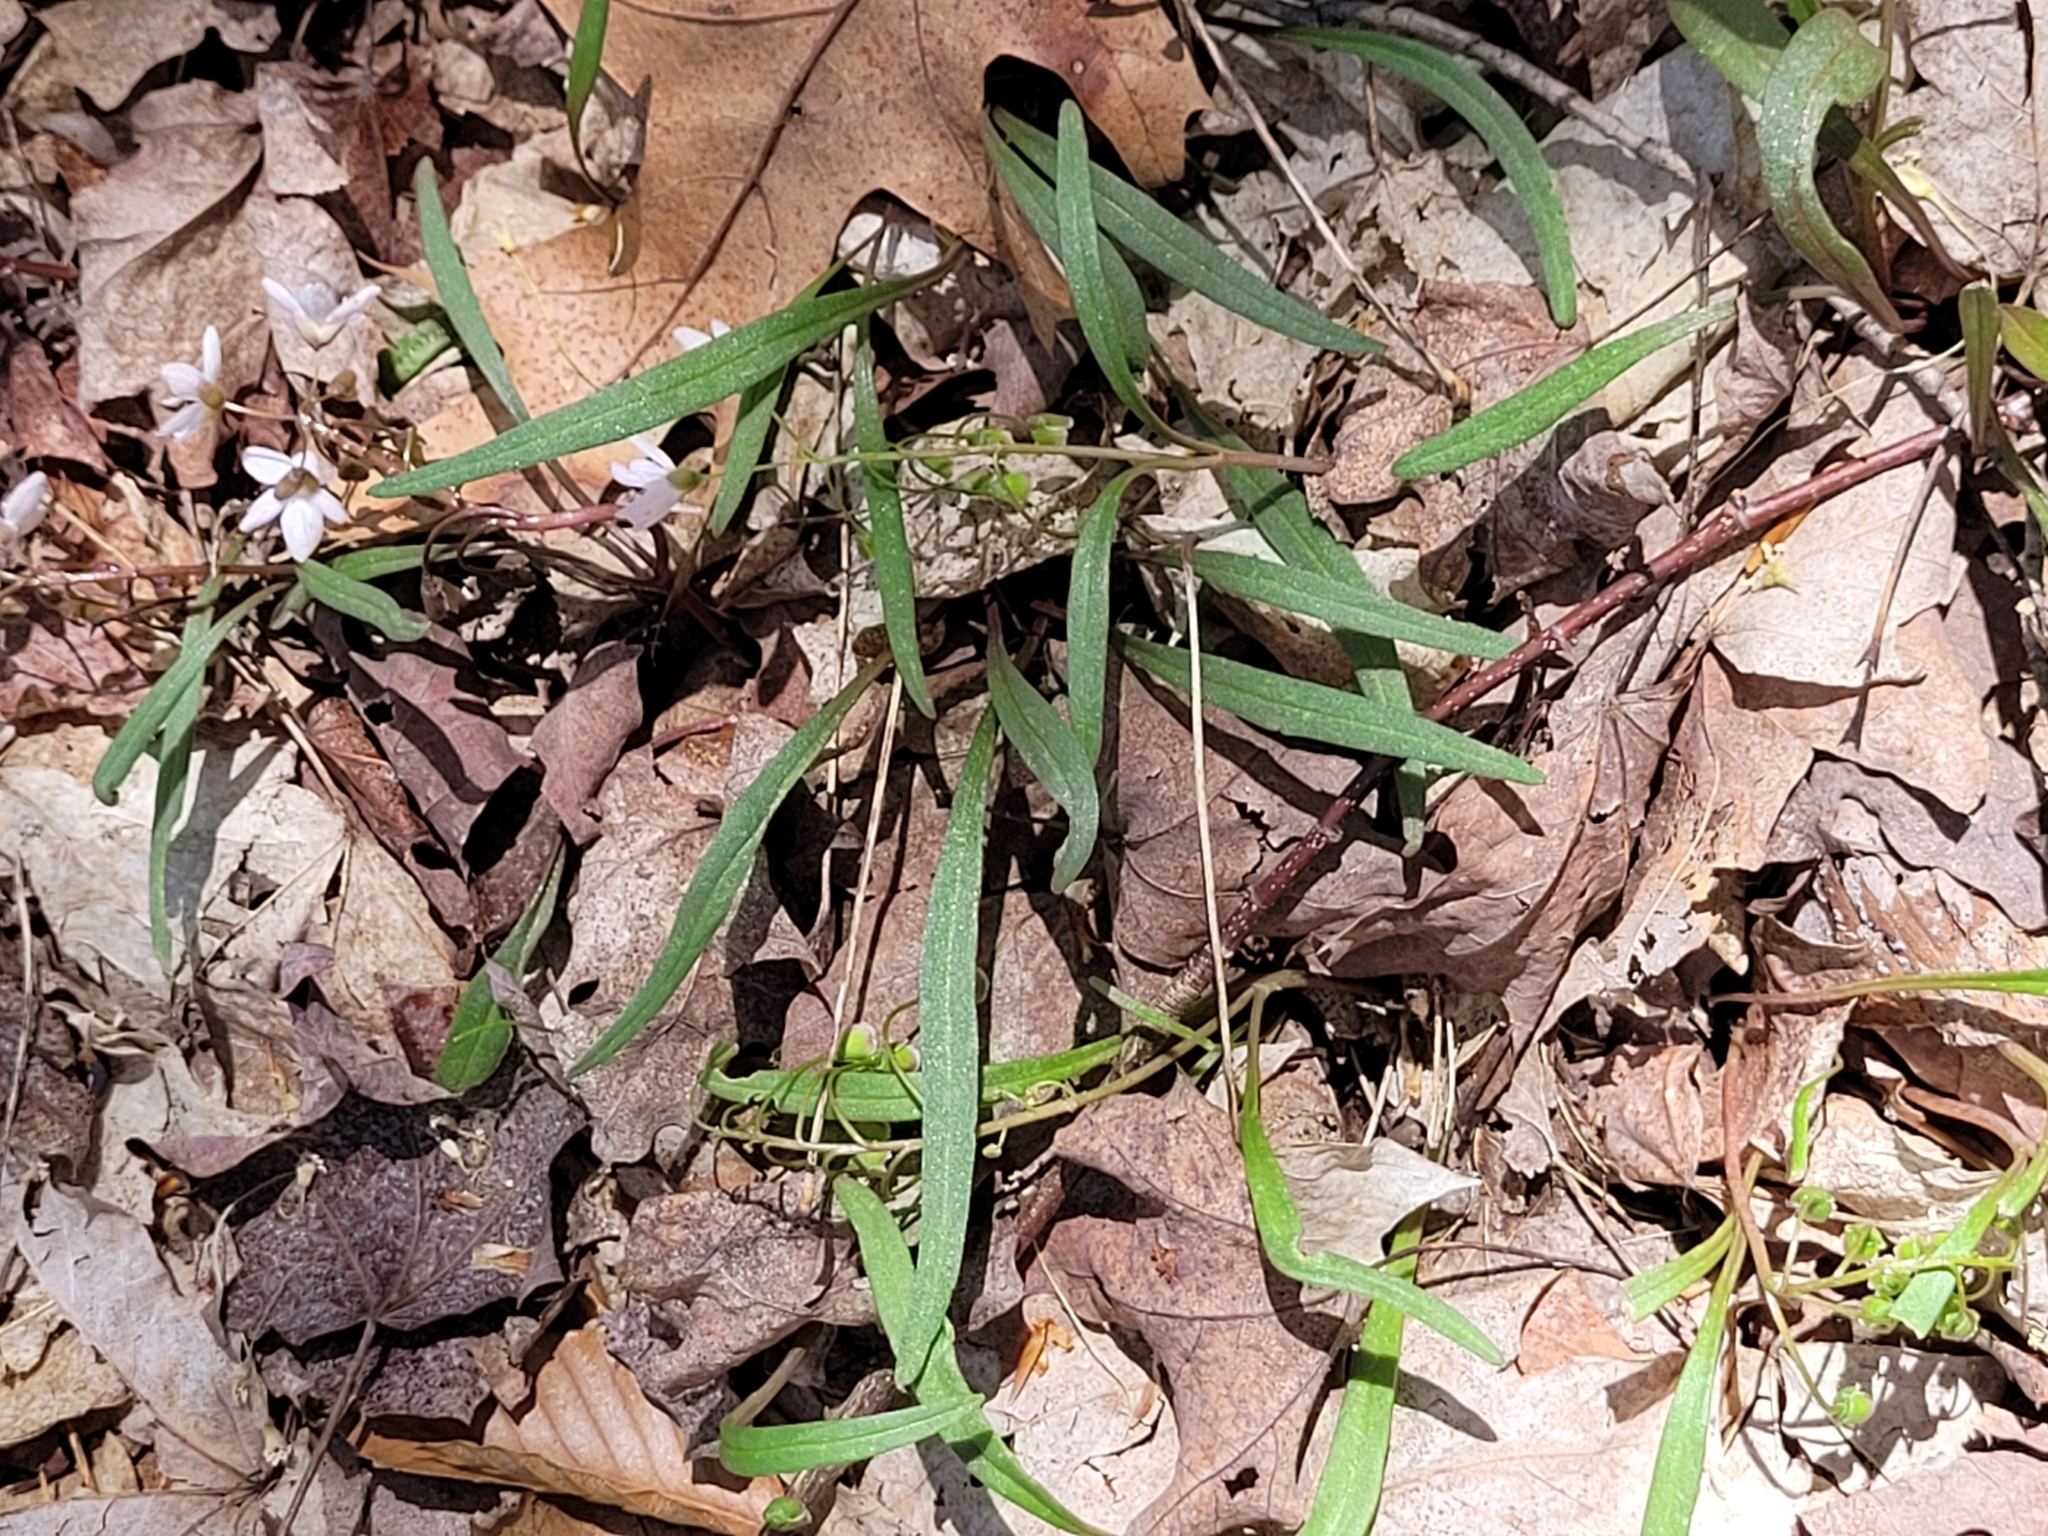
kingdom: Plantae
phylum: Tracheophyta
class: Magnoliopsida
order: Caryophyllales
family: Montiaceae
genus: Claytonia
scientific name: Claytonia virginica
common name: Virginia springbeauty
